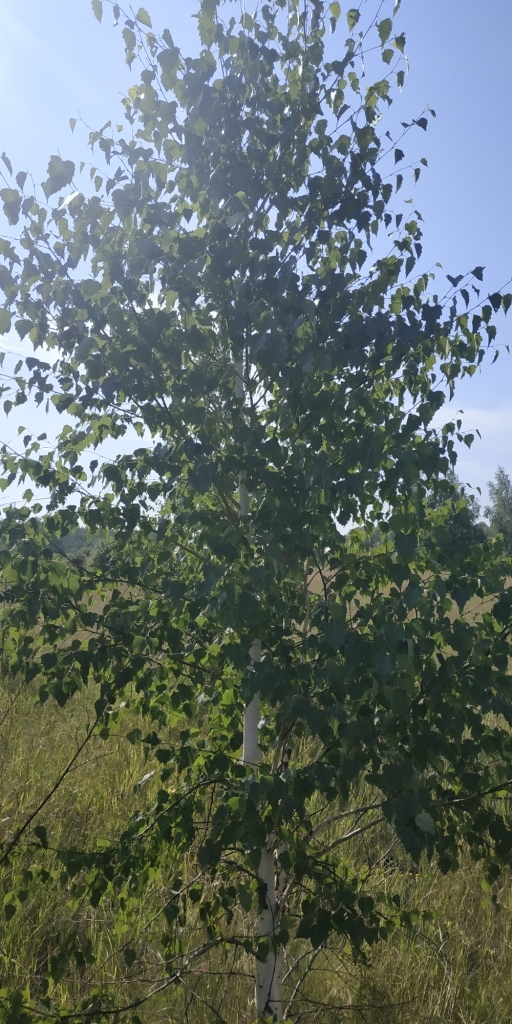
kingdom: Plantae
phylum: Tracheophyta
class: Magnoliopsida
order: Fagales
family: Betulaceae
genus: Betula
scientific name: Betula pendula
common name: Silver birch
